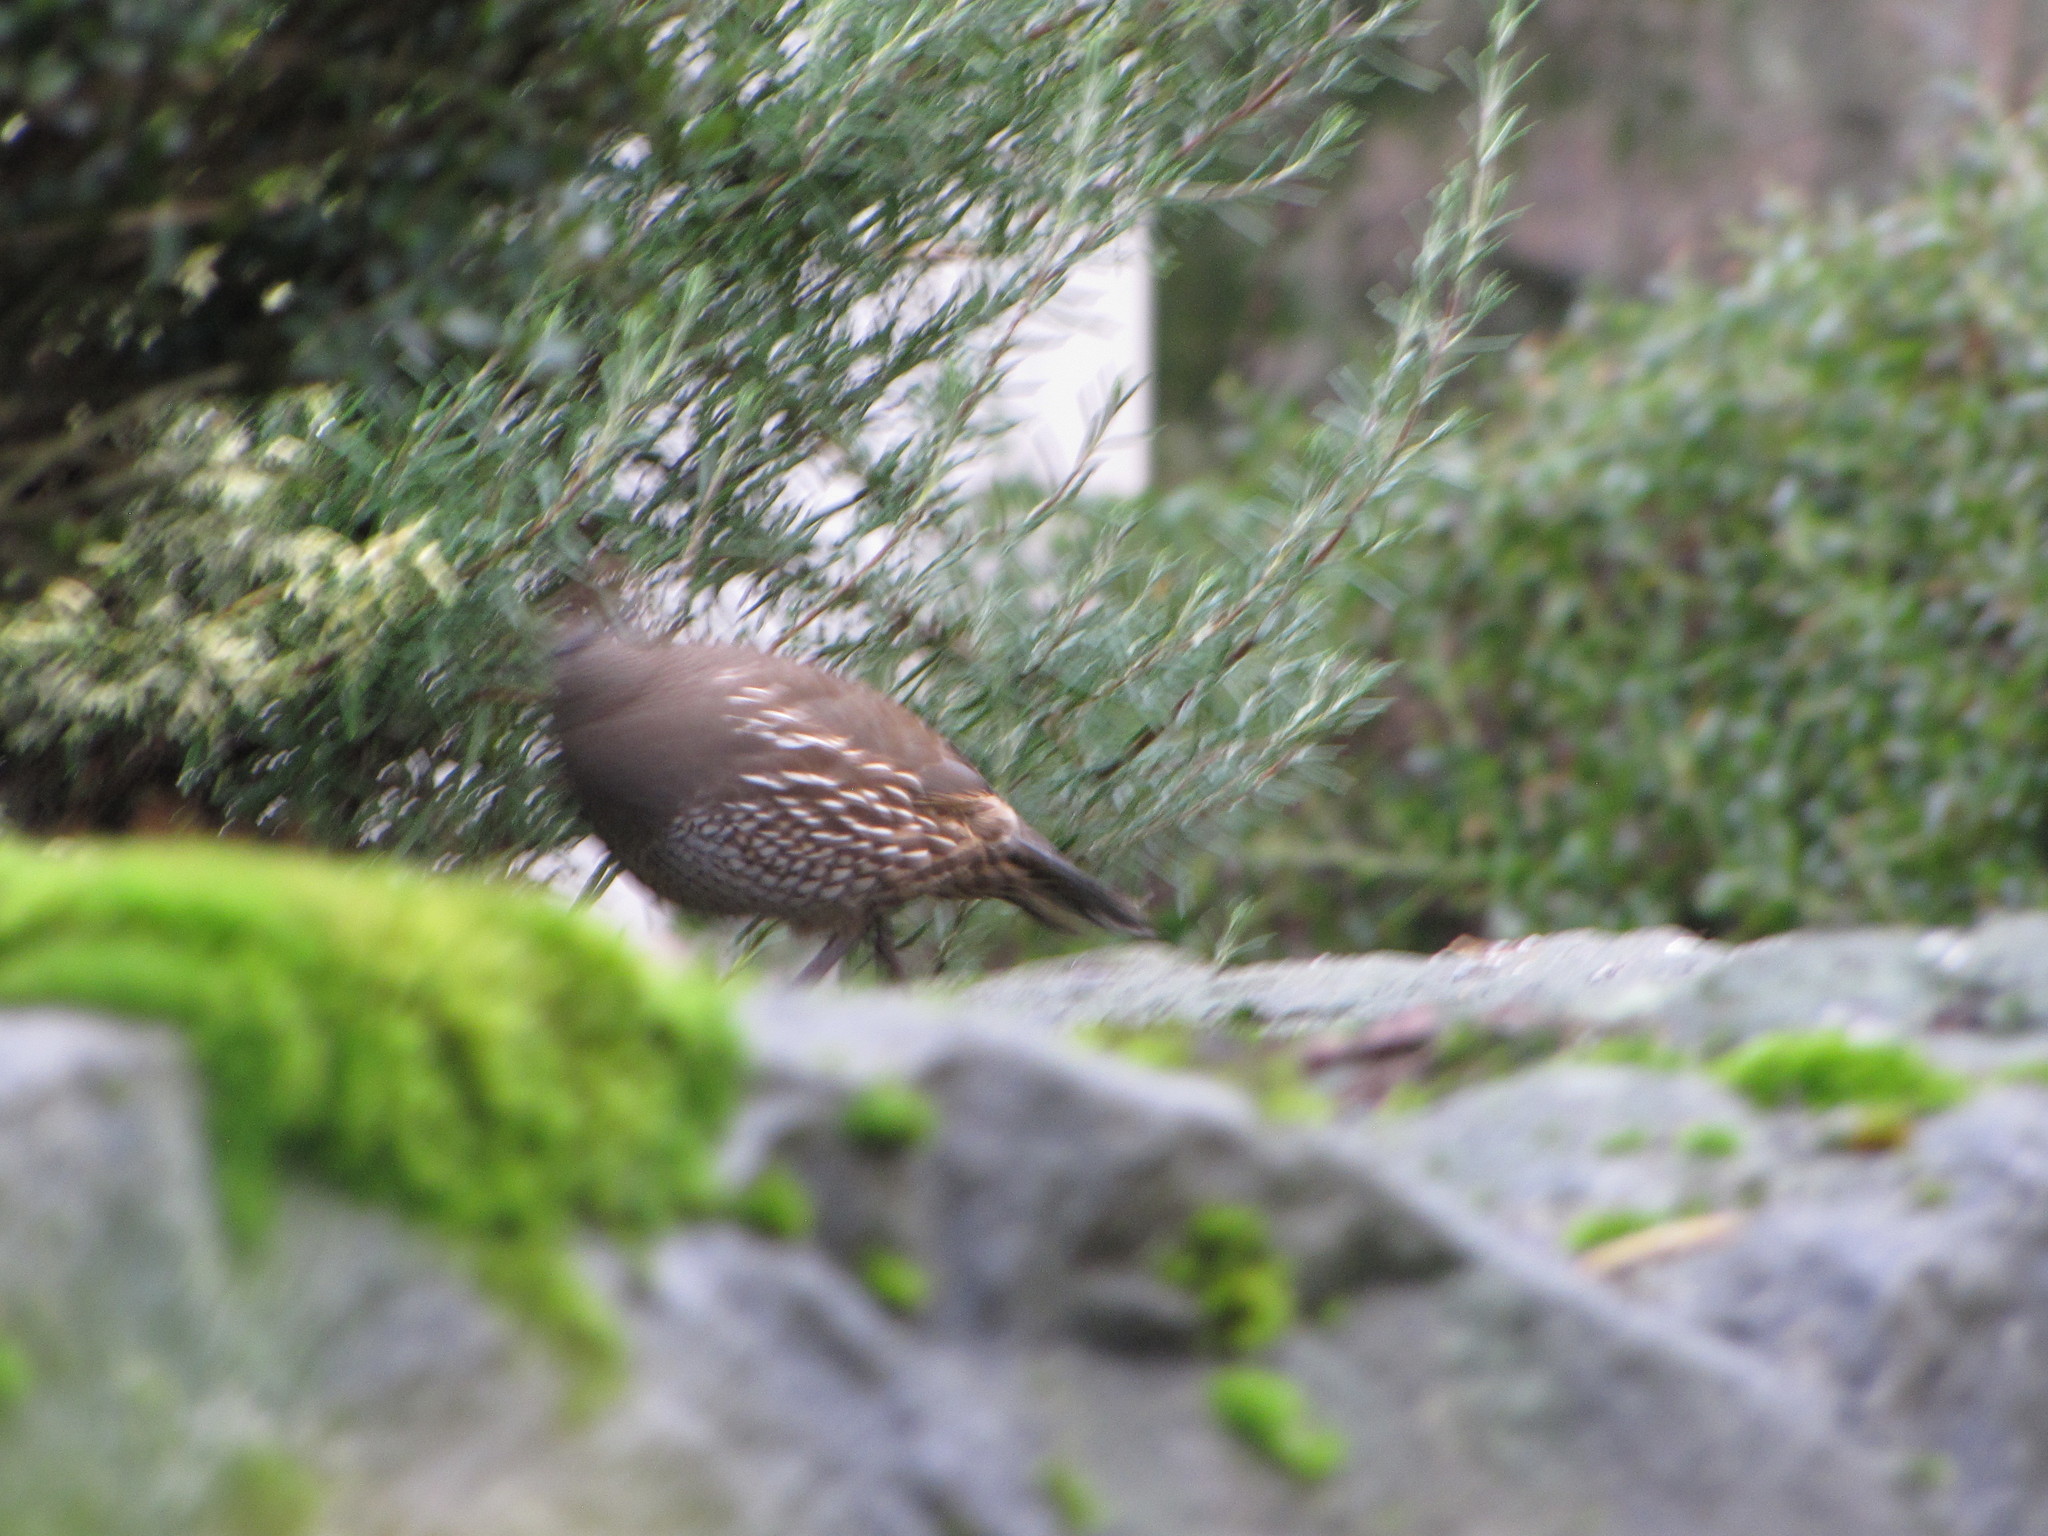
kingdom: Animalia
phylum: Chordata
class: Aves
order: Galliformes
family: Odontophoridae
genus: Callipepla
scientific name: Callipepla californica
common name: California quail
